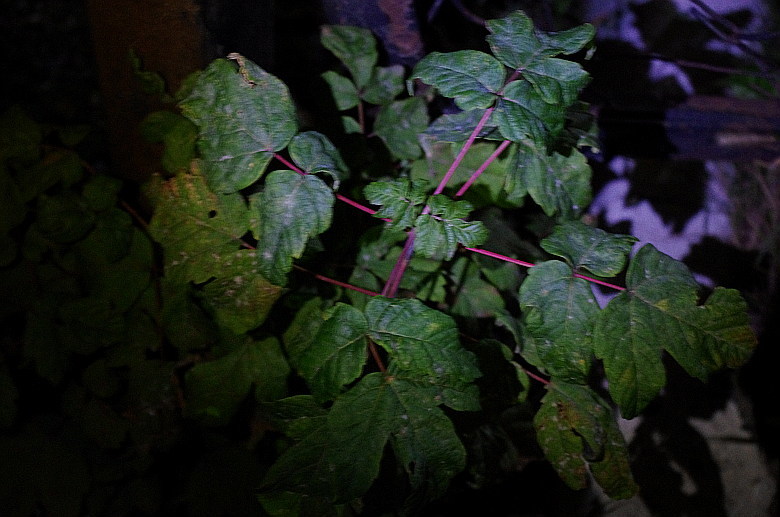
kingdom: Plantae
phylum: Tracheophyta
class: Magnoliopsida
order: Sapindales
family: Sapindaceae
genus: Acer
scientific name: Acer negundo
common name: Ashleaf maple
